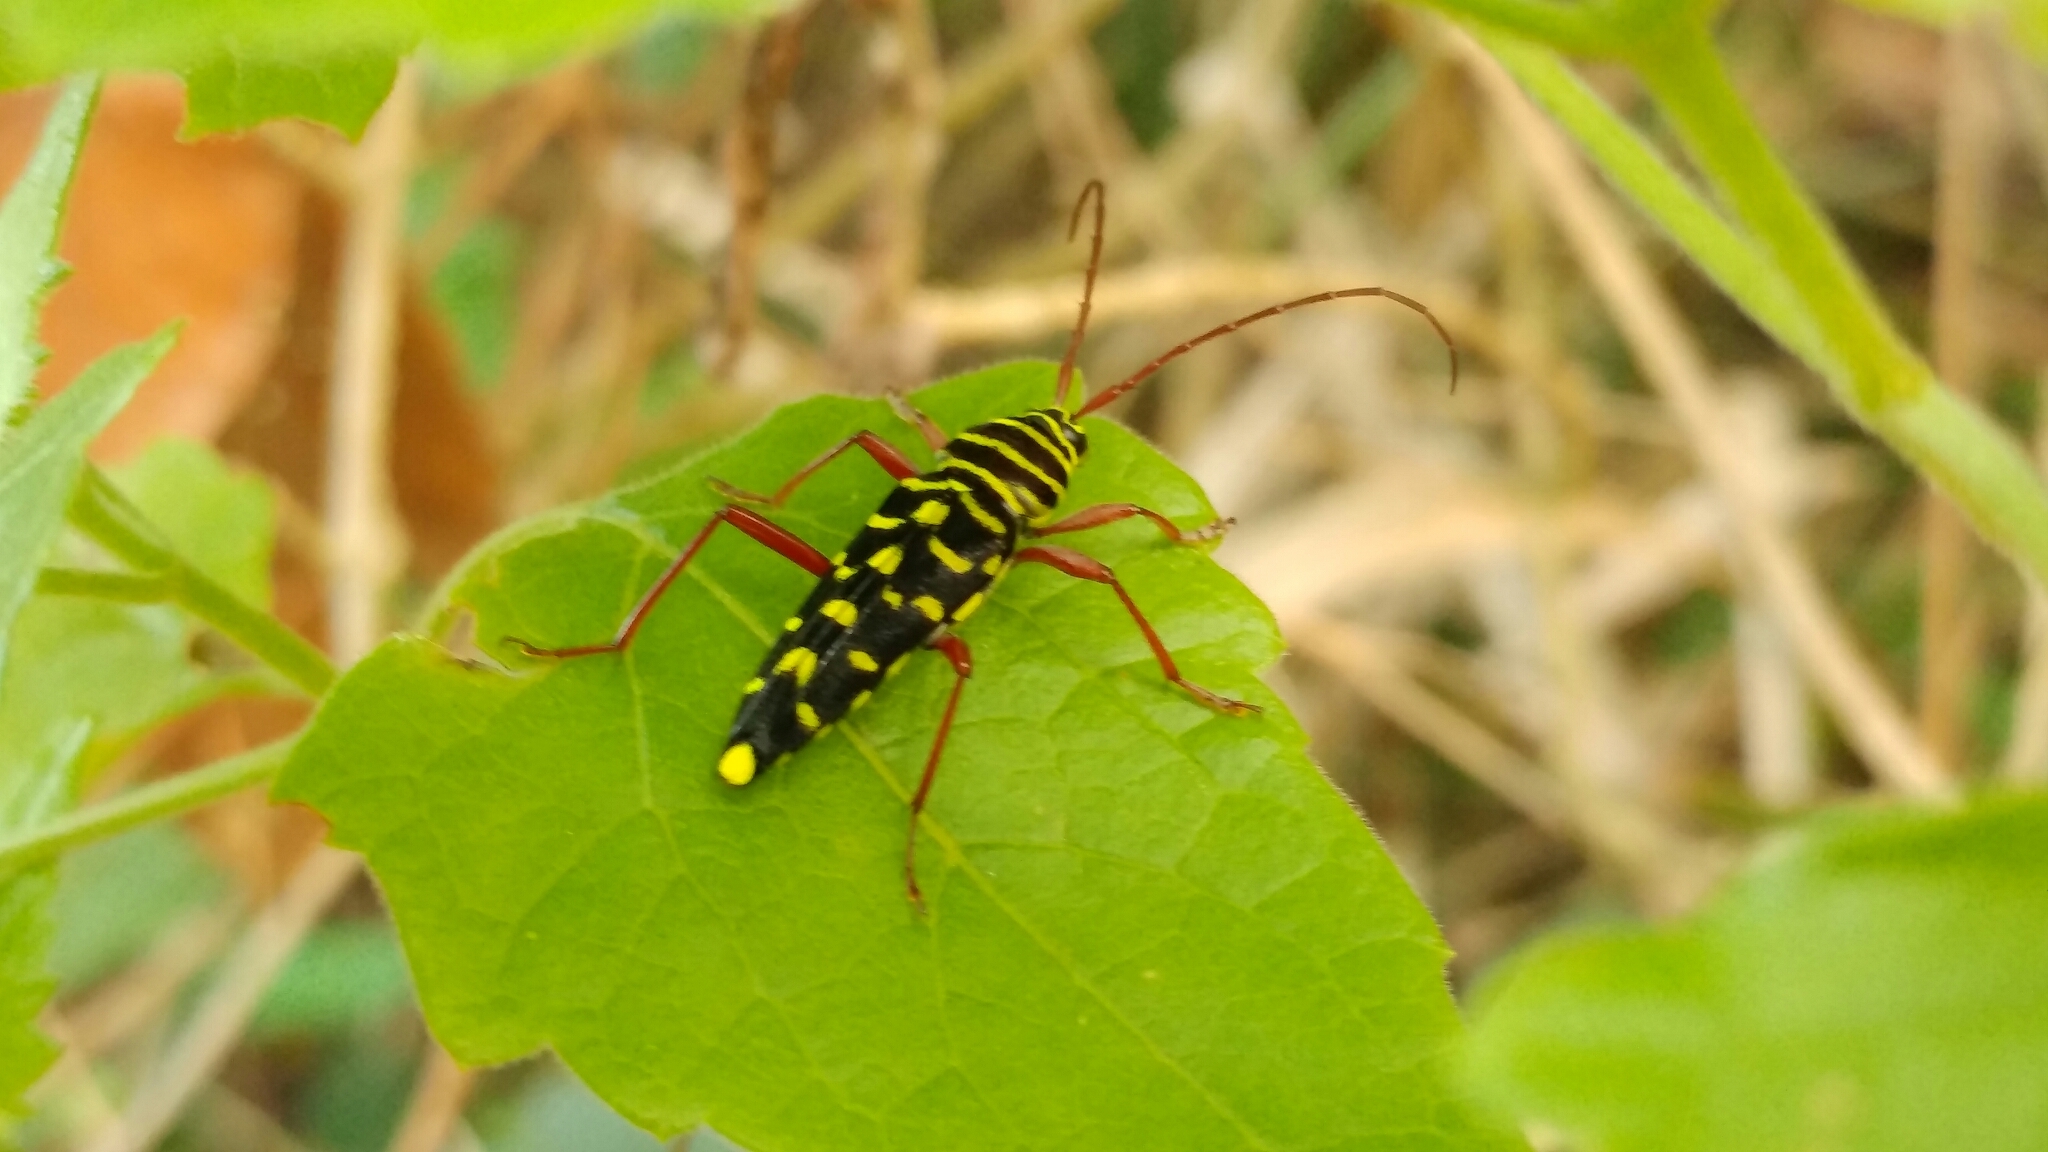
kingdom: Animalia
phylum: Arthropoda
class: Insecta
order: Coleoptera
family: Cerambycidae
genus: Placosternus
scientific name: Placosternus erythropus
